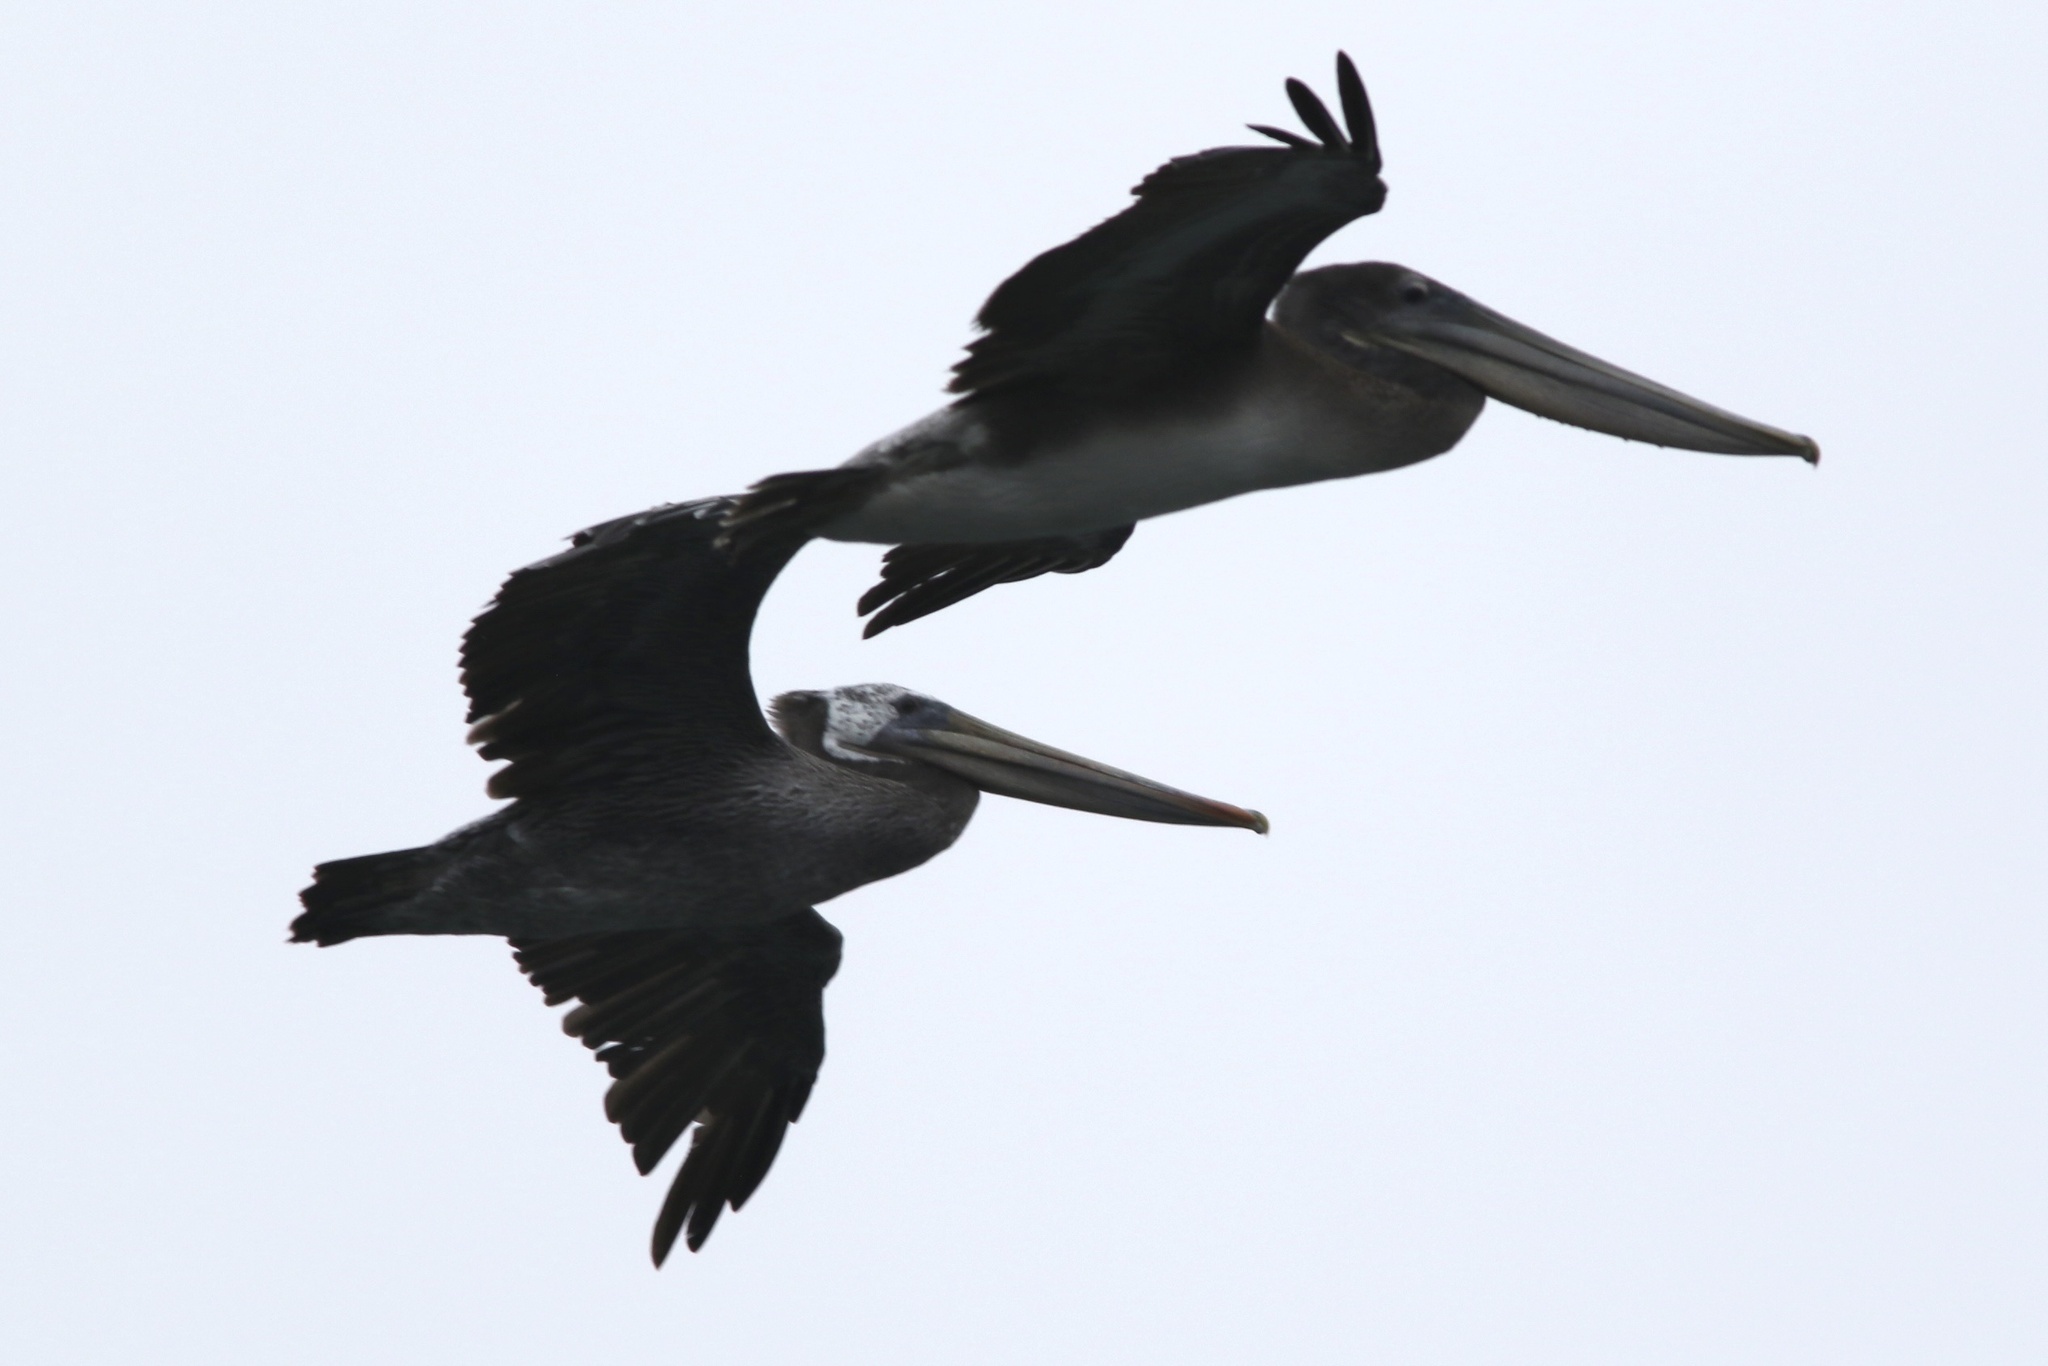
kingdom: Animalia
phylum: Chordata
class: Aves
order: Pelecaniformes
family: Pelecanidae
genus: Pelecanus
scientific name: Pelecanus occidentalis
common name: Brown pelican
